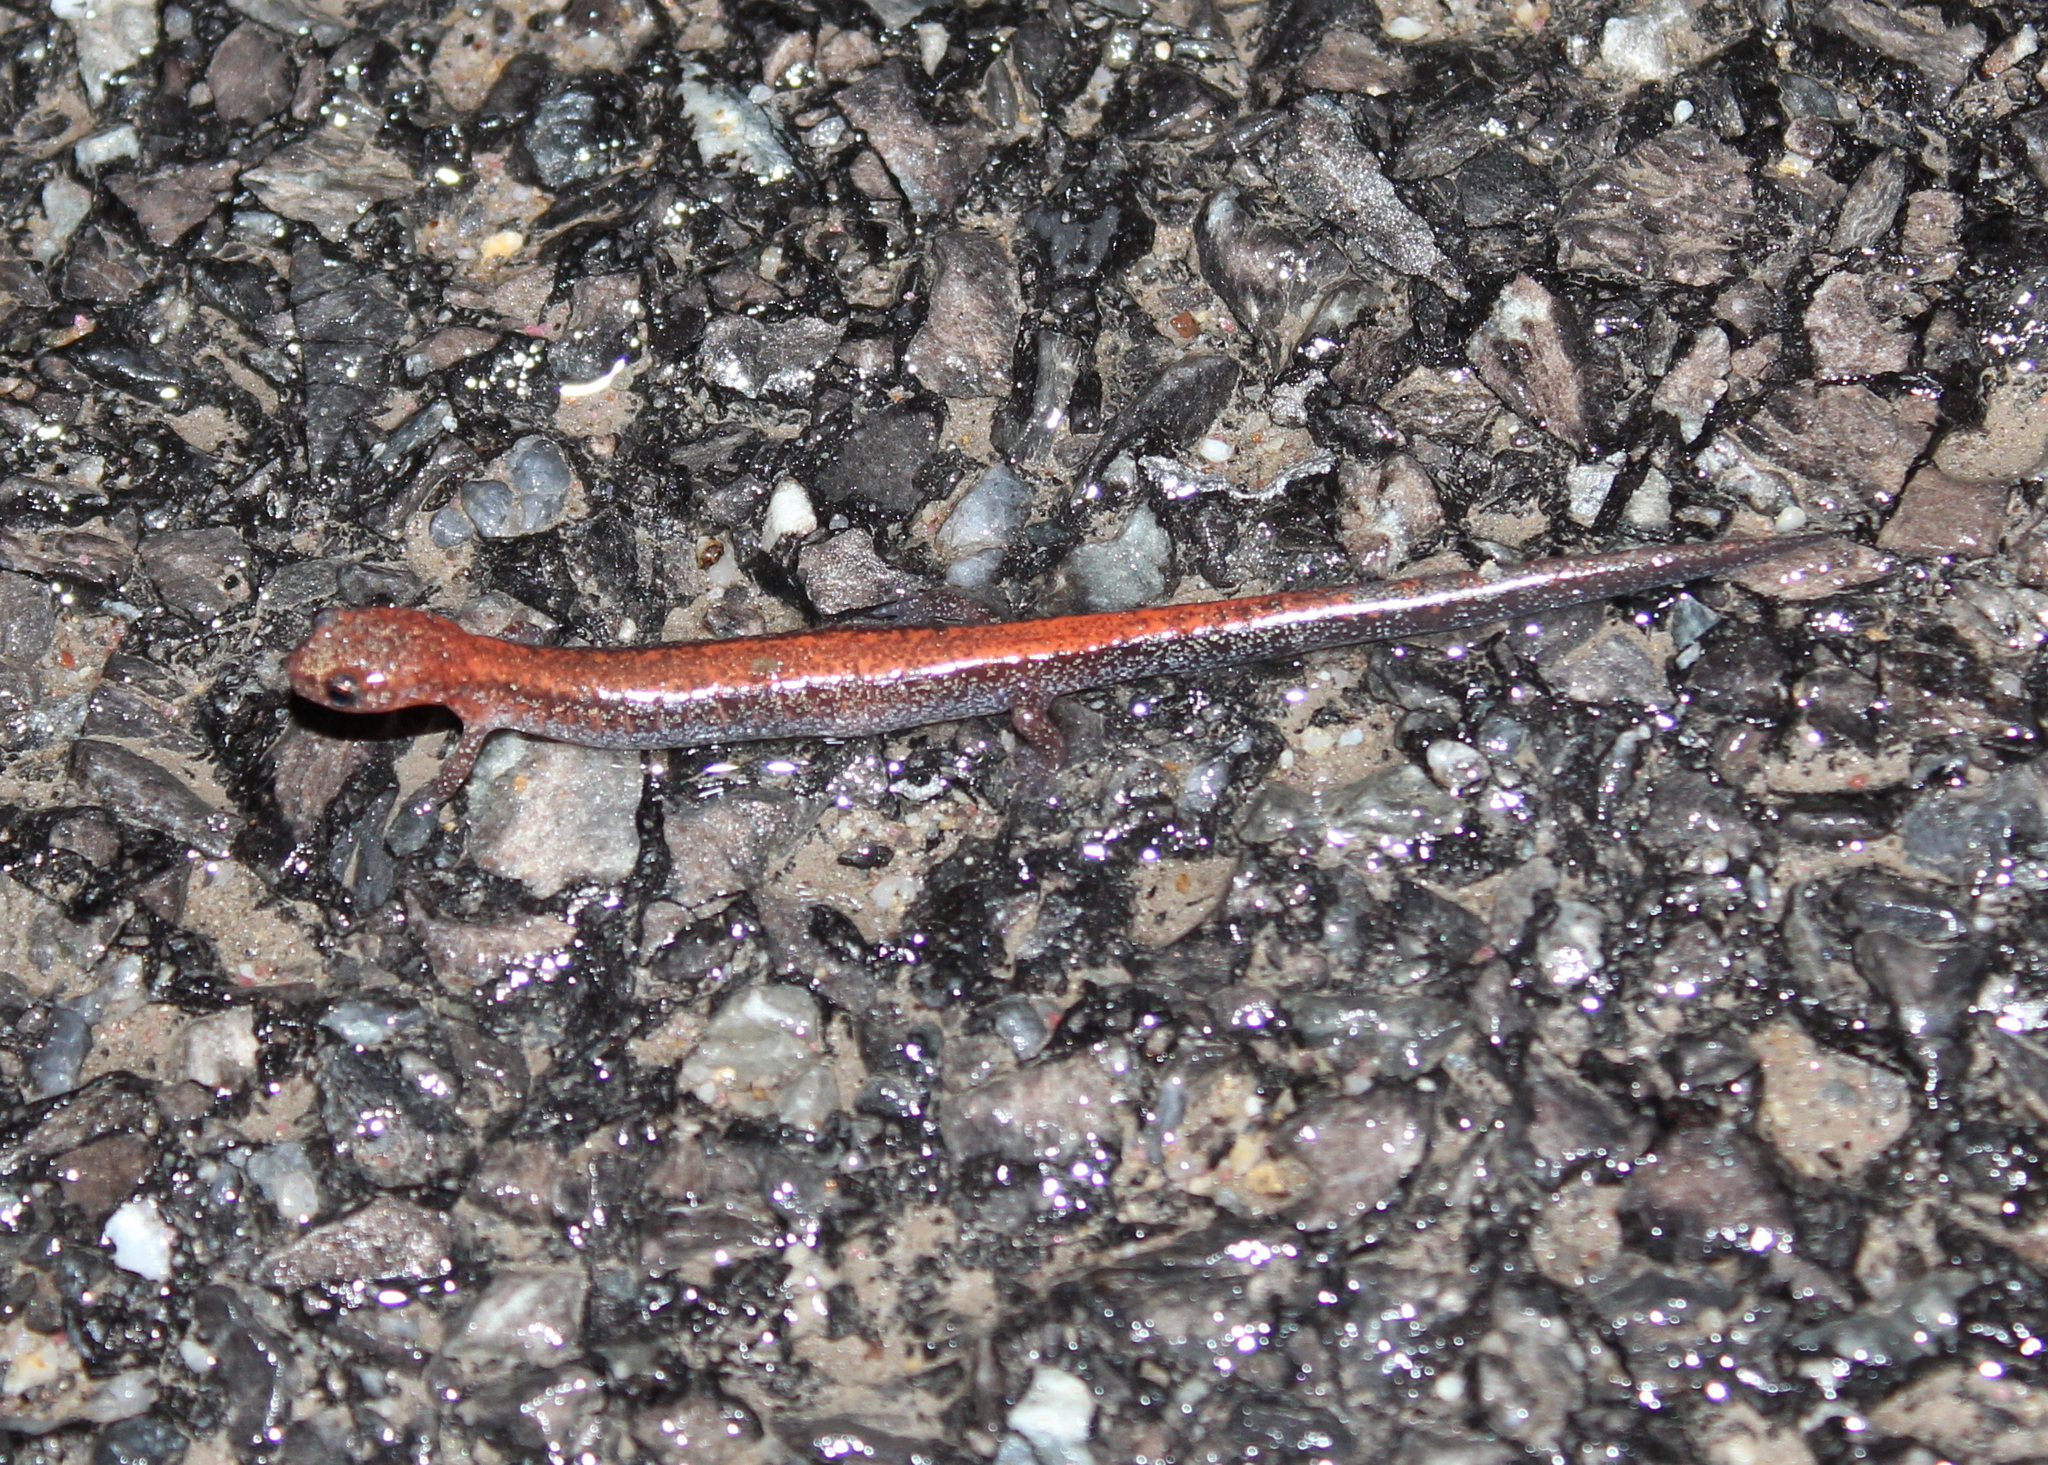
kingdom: Animalia
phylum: Chordata
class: Amphibia
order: Caudata
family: Plethodontidae
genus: Plethodon
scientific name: Plethodon cinereus
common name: Redback salamander
